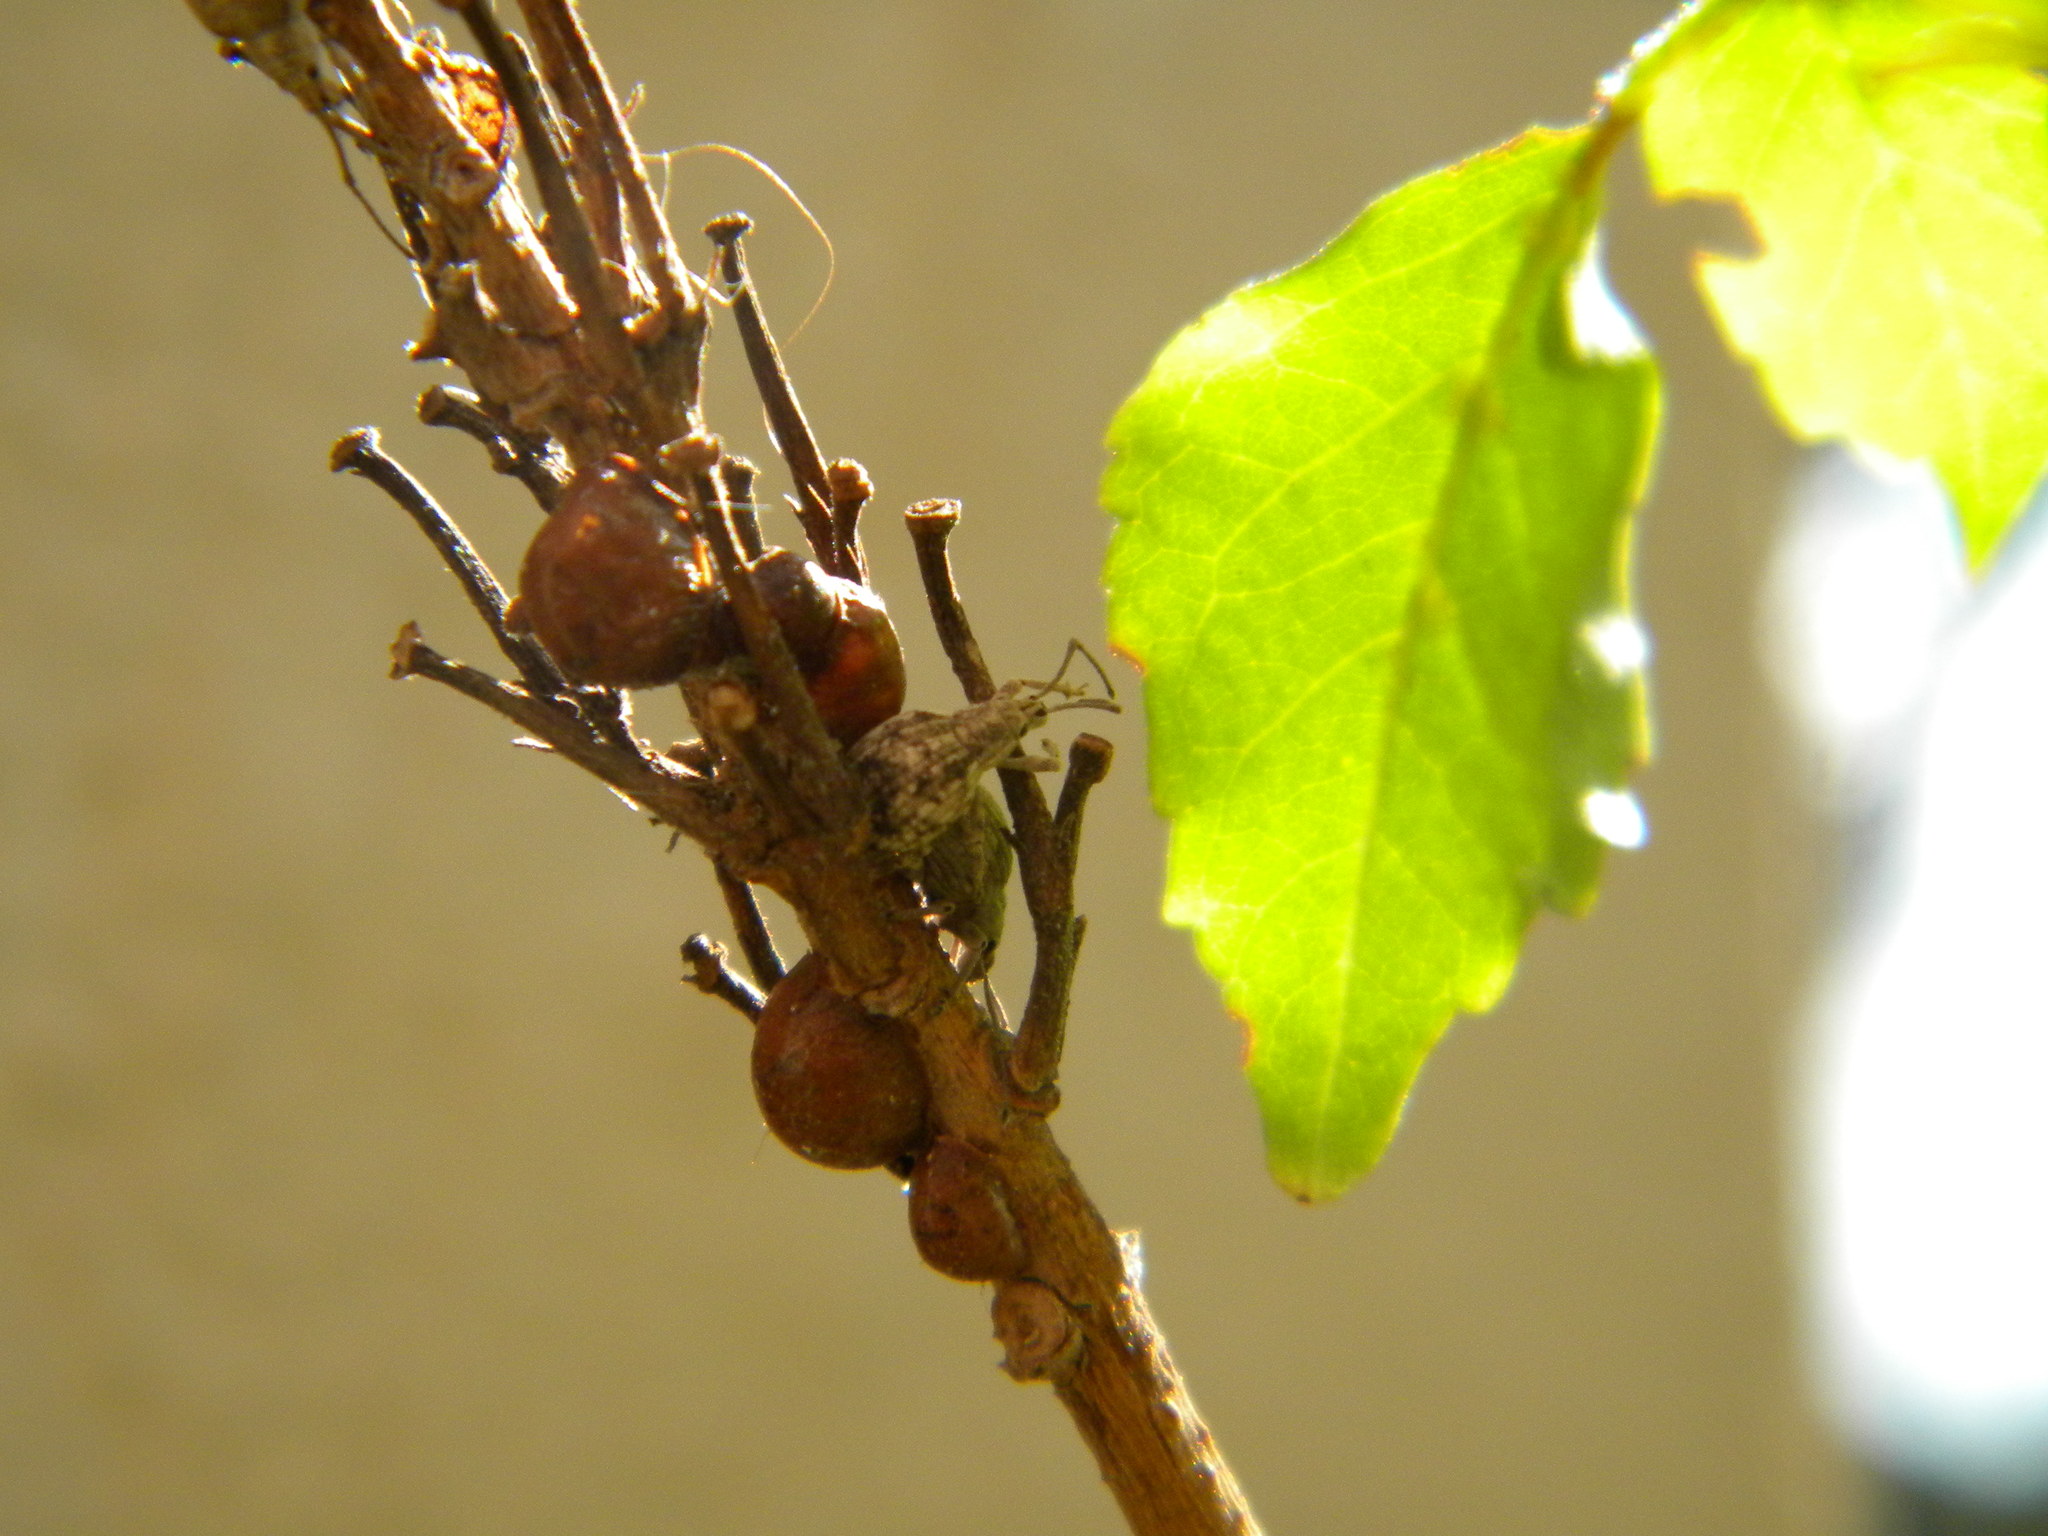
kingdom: Animalia
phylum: Arthropoda
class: Insecta
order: Coleoptera
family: Curculionidae
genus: Ellimenistes
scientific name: Ellimenistes laesicollis
